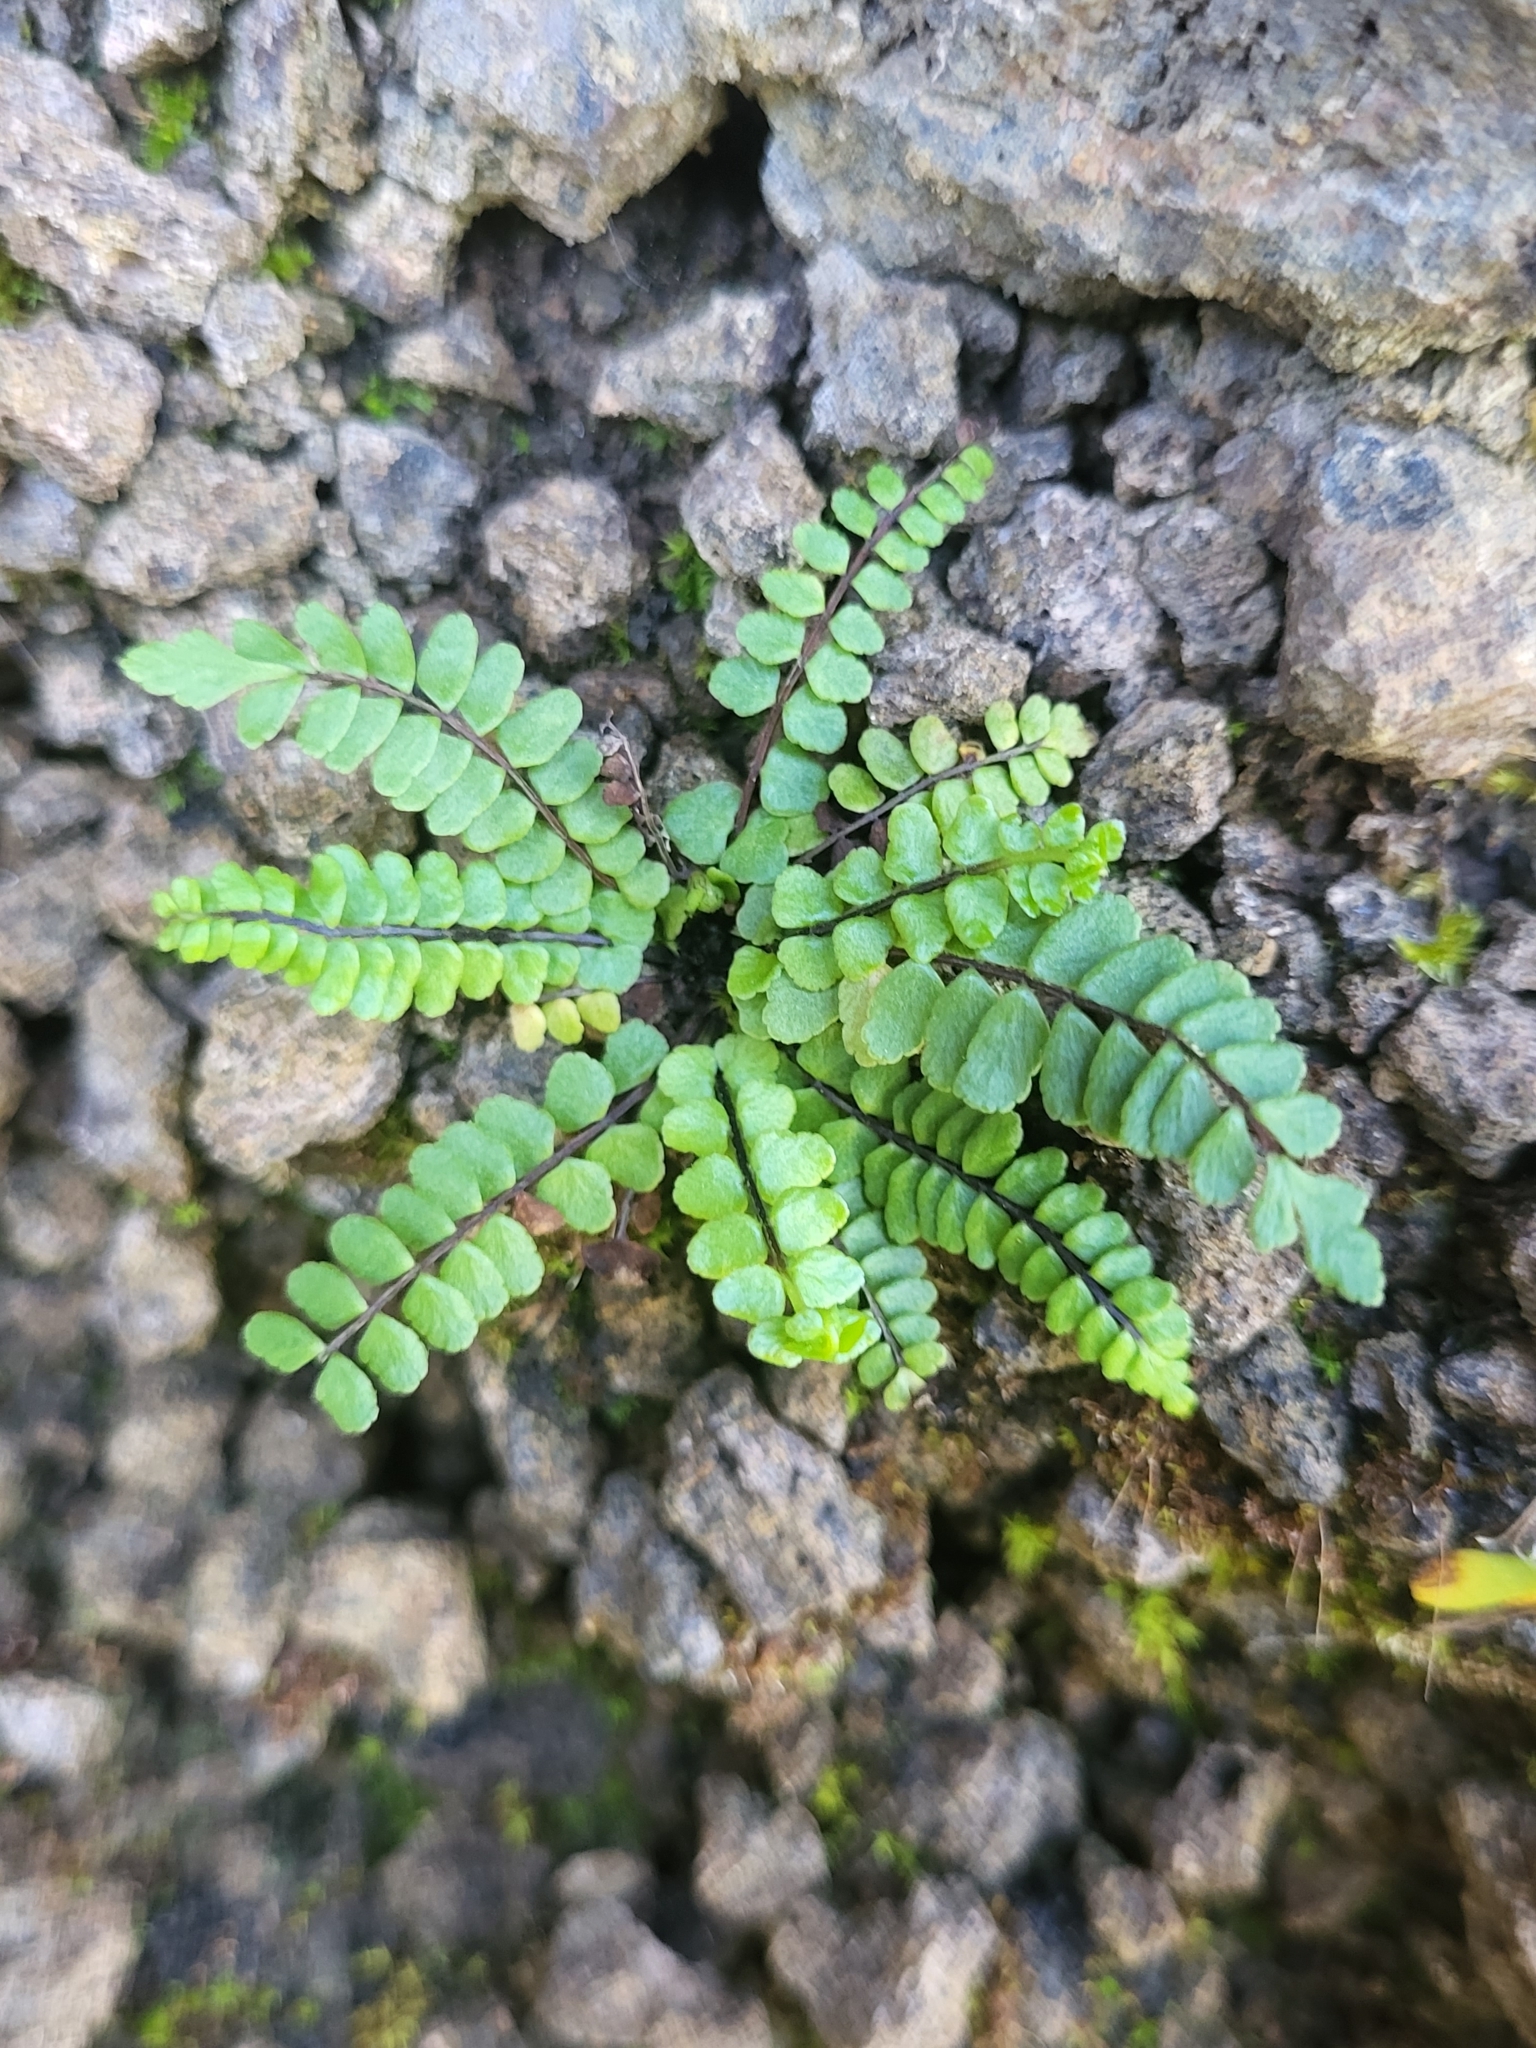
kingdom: Plantae
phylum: Tracheophyta
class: Polypodiopsida
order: Polypodiales
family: Aspleniaceae
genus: Asplenium
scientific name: Asplenium trichomanes
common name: Maidenhair spleenwort
